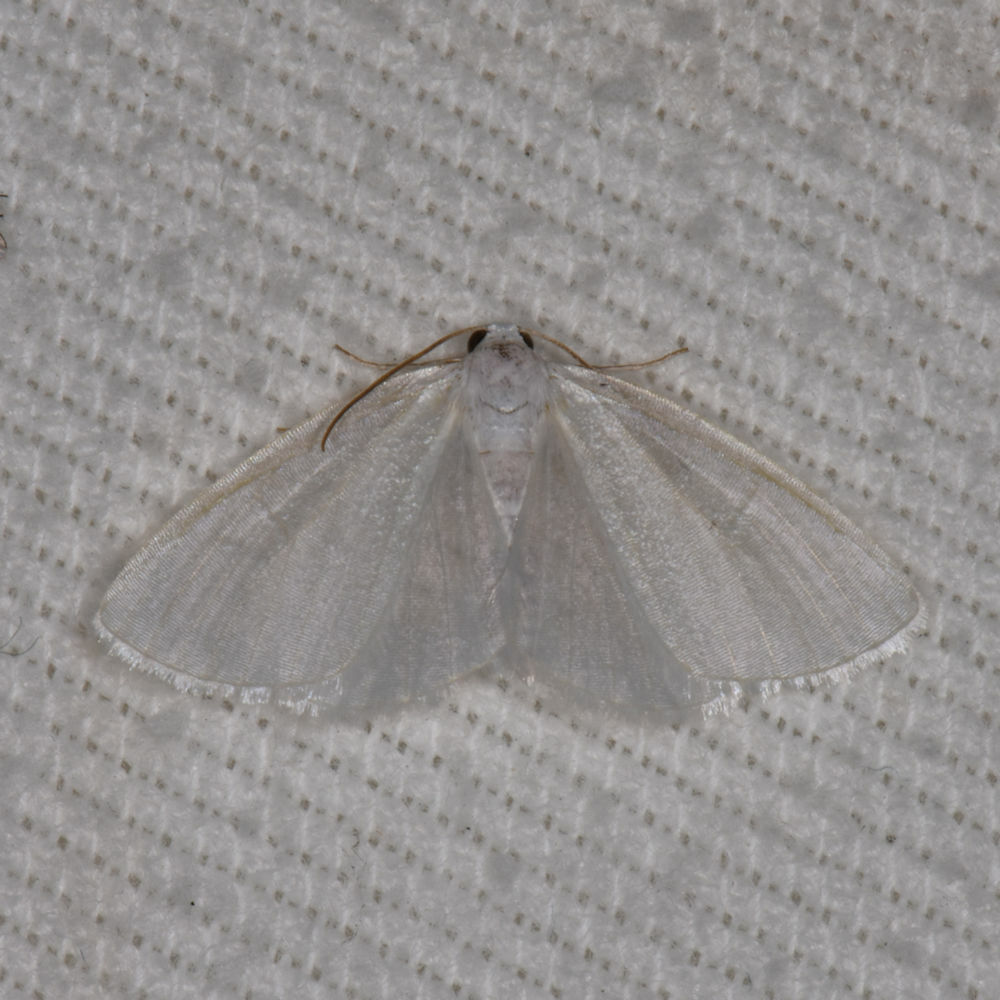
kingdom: Animalia
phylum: Arthropoda
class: Insecta
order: Lepidoptera
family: Geometridae
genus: Lomographa
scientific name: Lomographa vestaliata
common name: White spring moth
